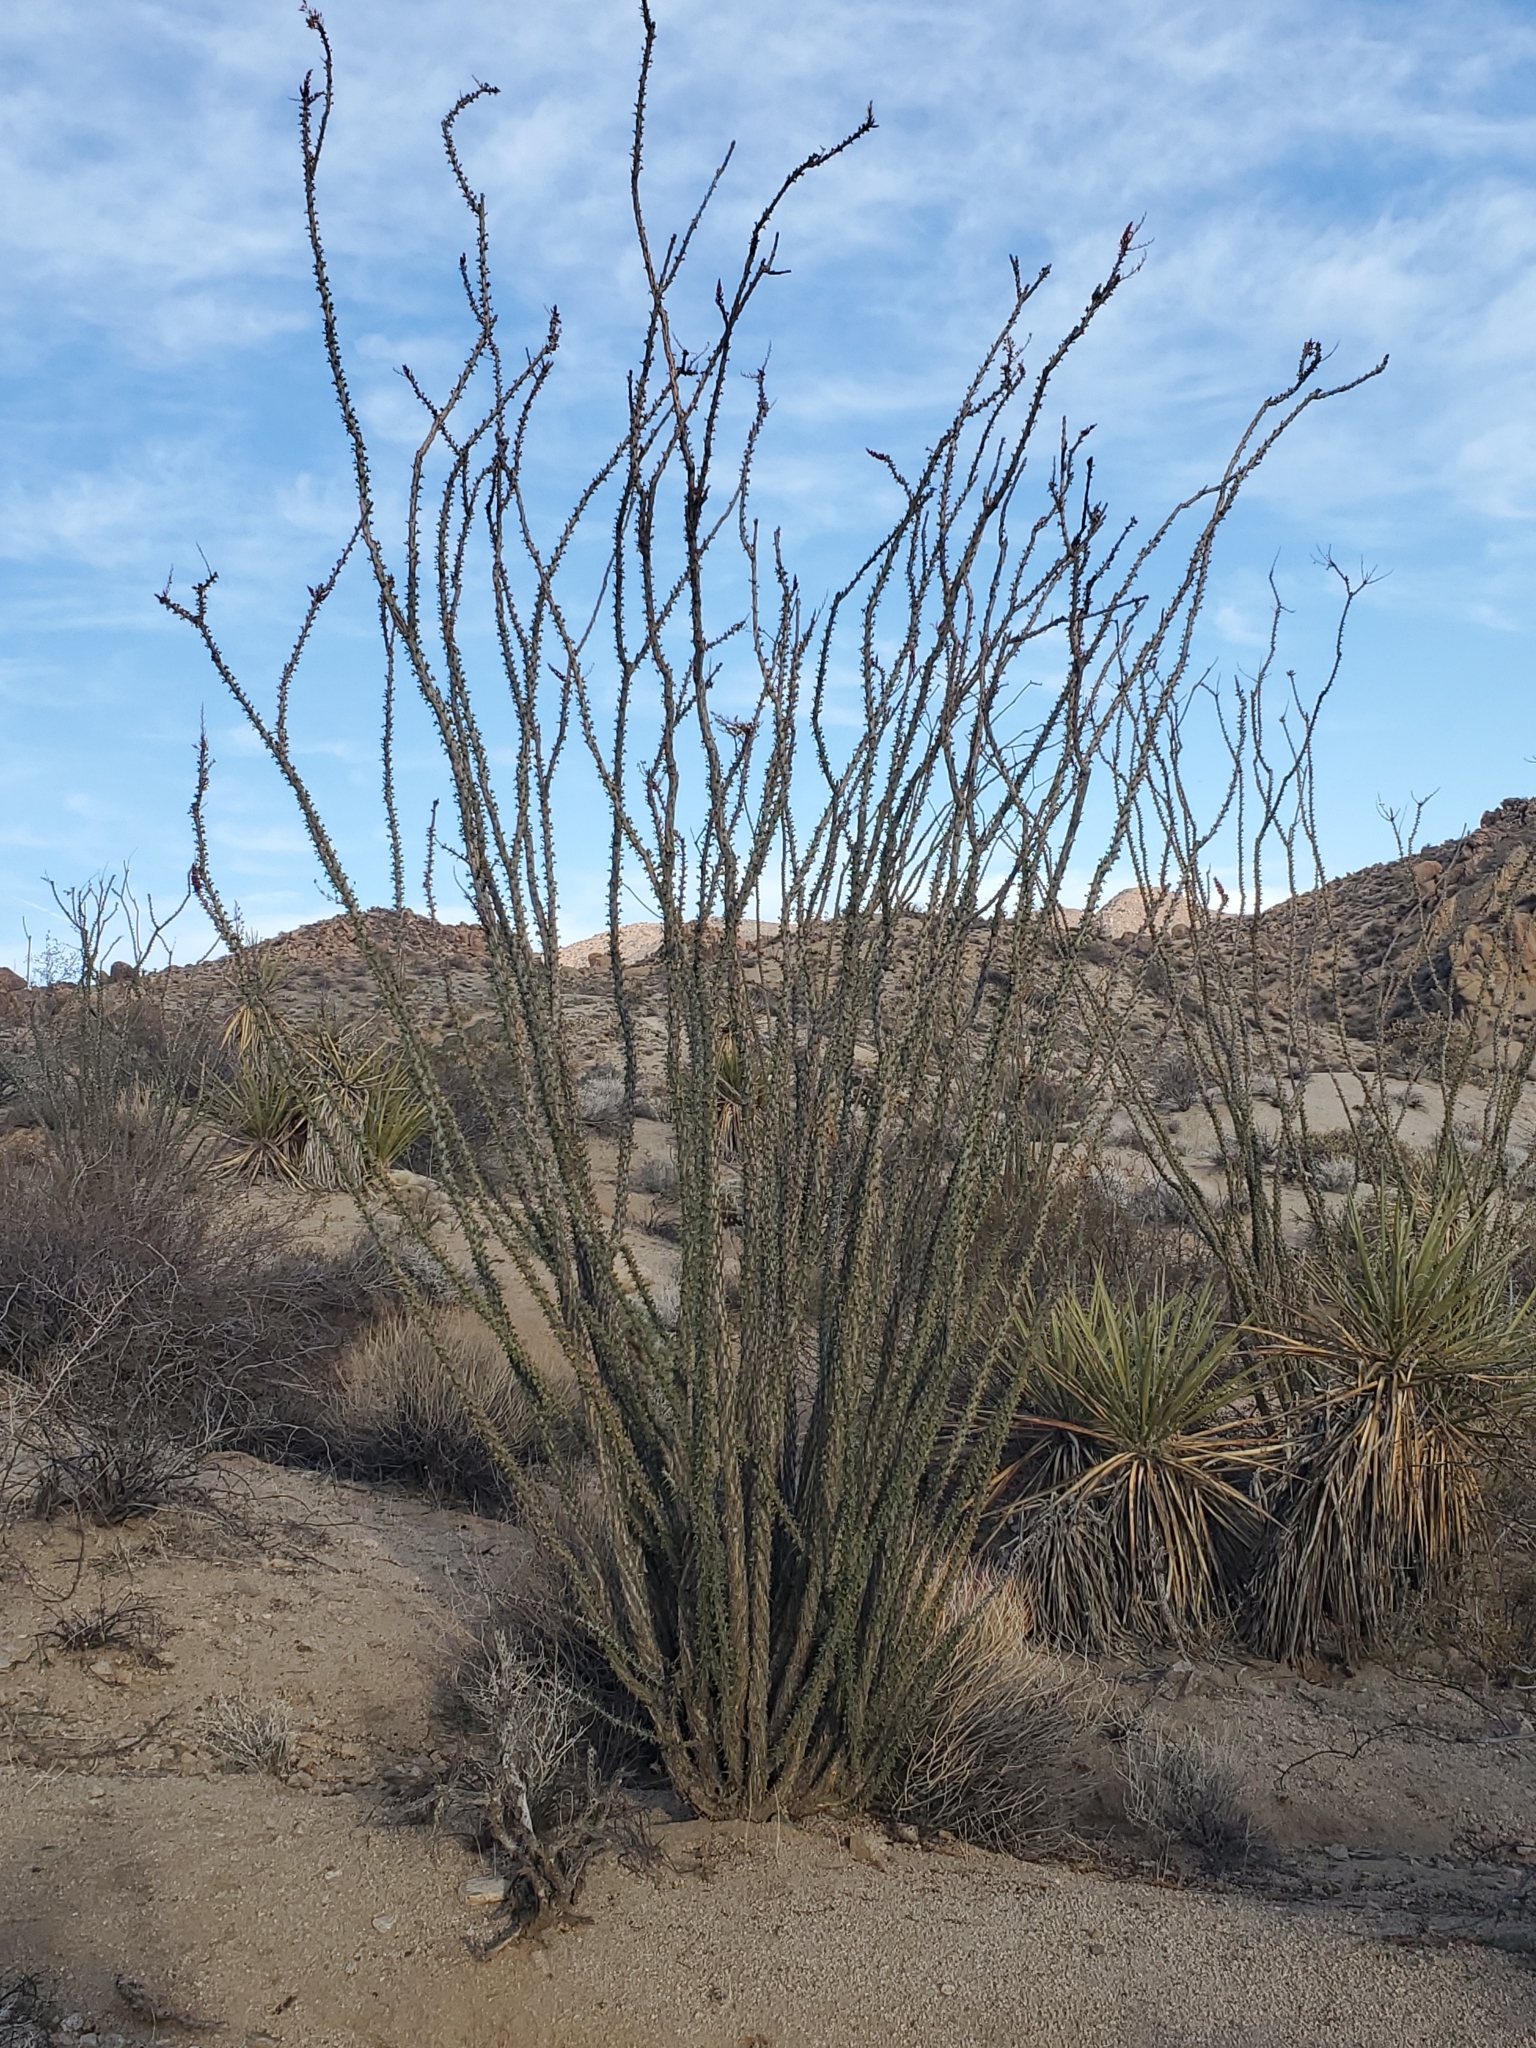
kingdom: Plantae
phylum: Tracheophyta
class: Magnoliopsida
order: Ericales
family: Fouquieriaceae
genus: Fouquieria
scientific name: Fouquieria splendens
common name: Vine-cactus
